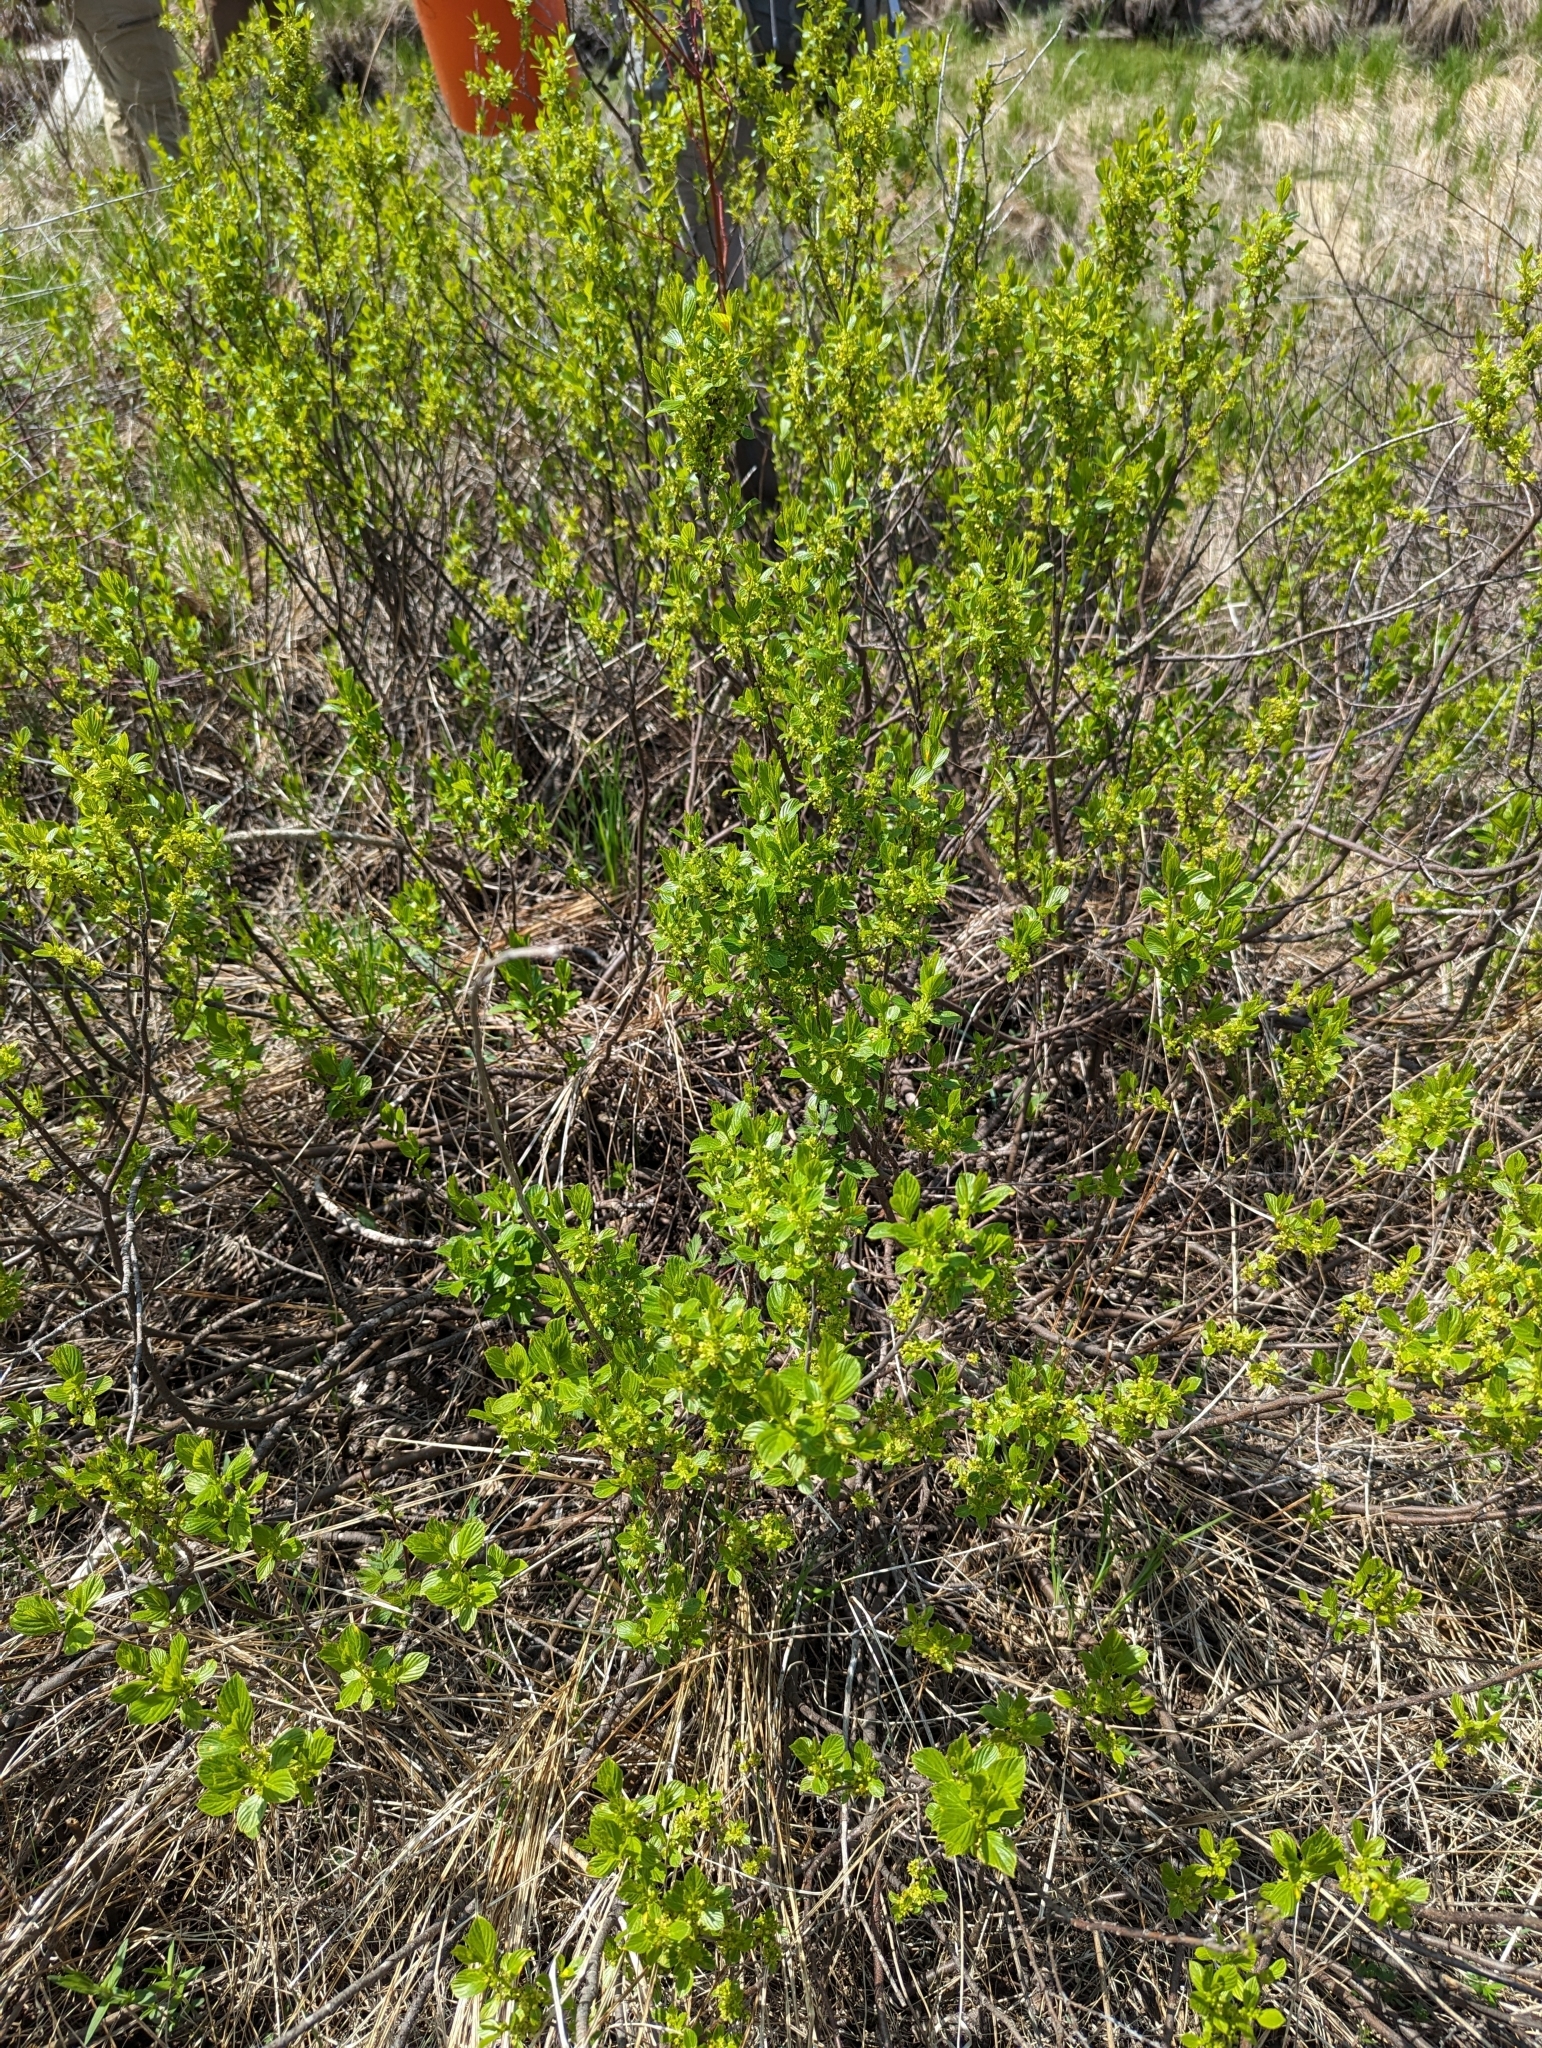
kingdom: Plantae
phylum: Tracheophyta
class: Magnoliopsida
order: Rosales
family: Rhamnaceae
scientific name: Rhamnaceae
